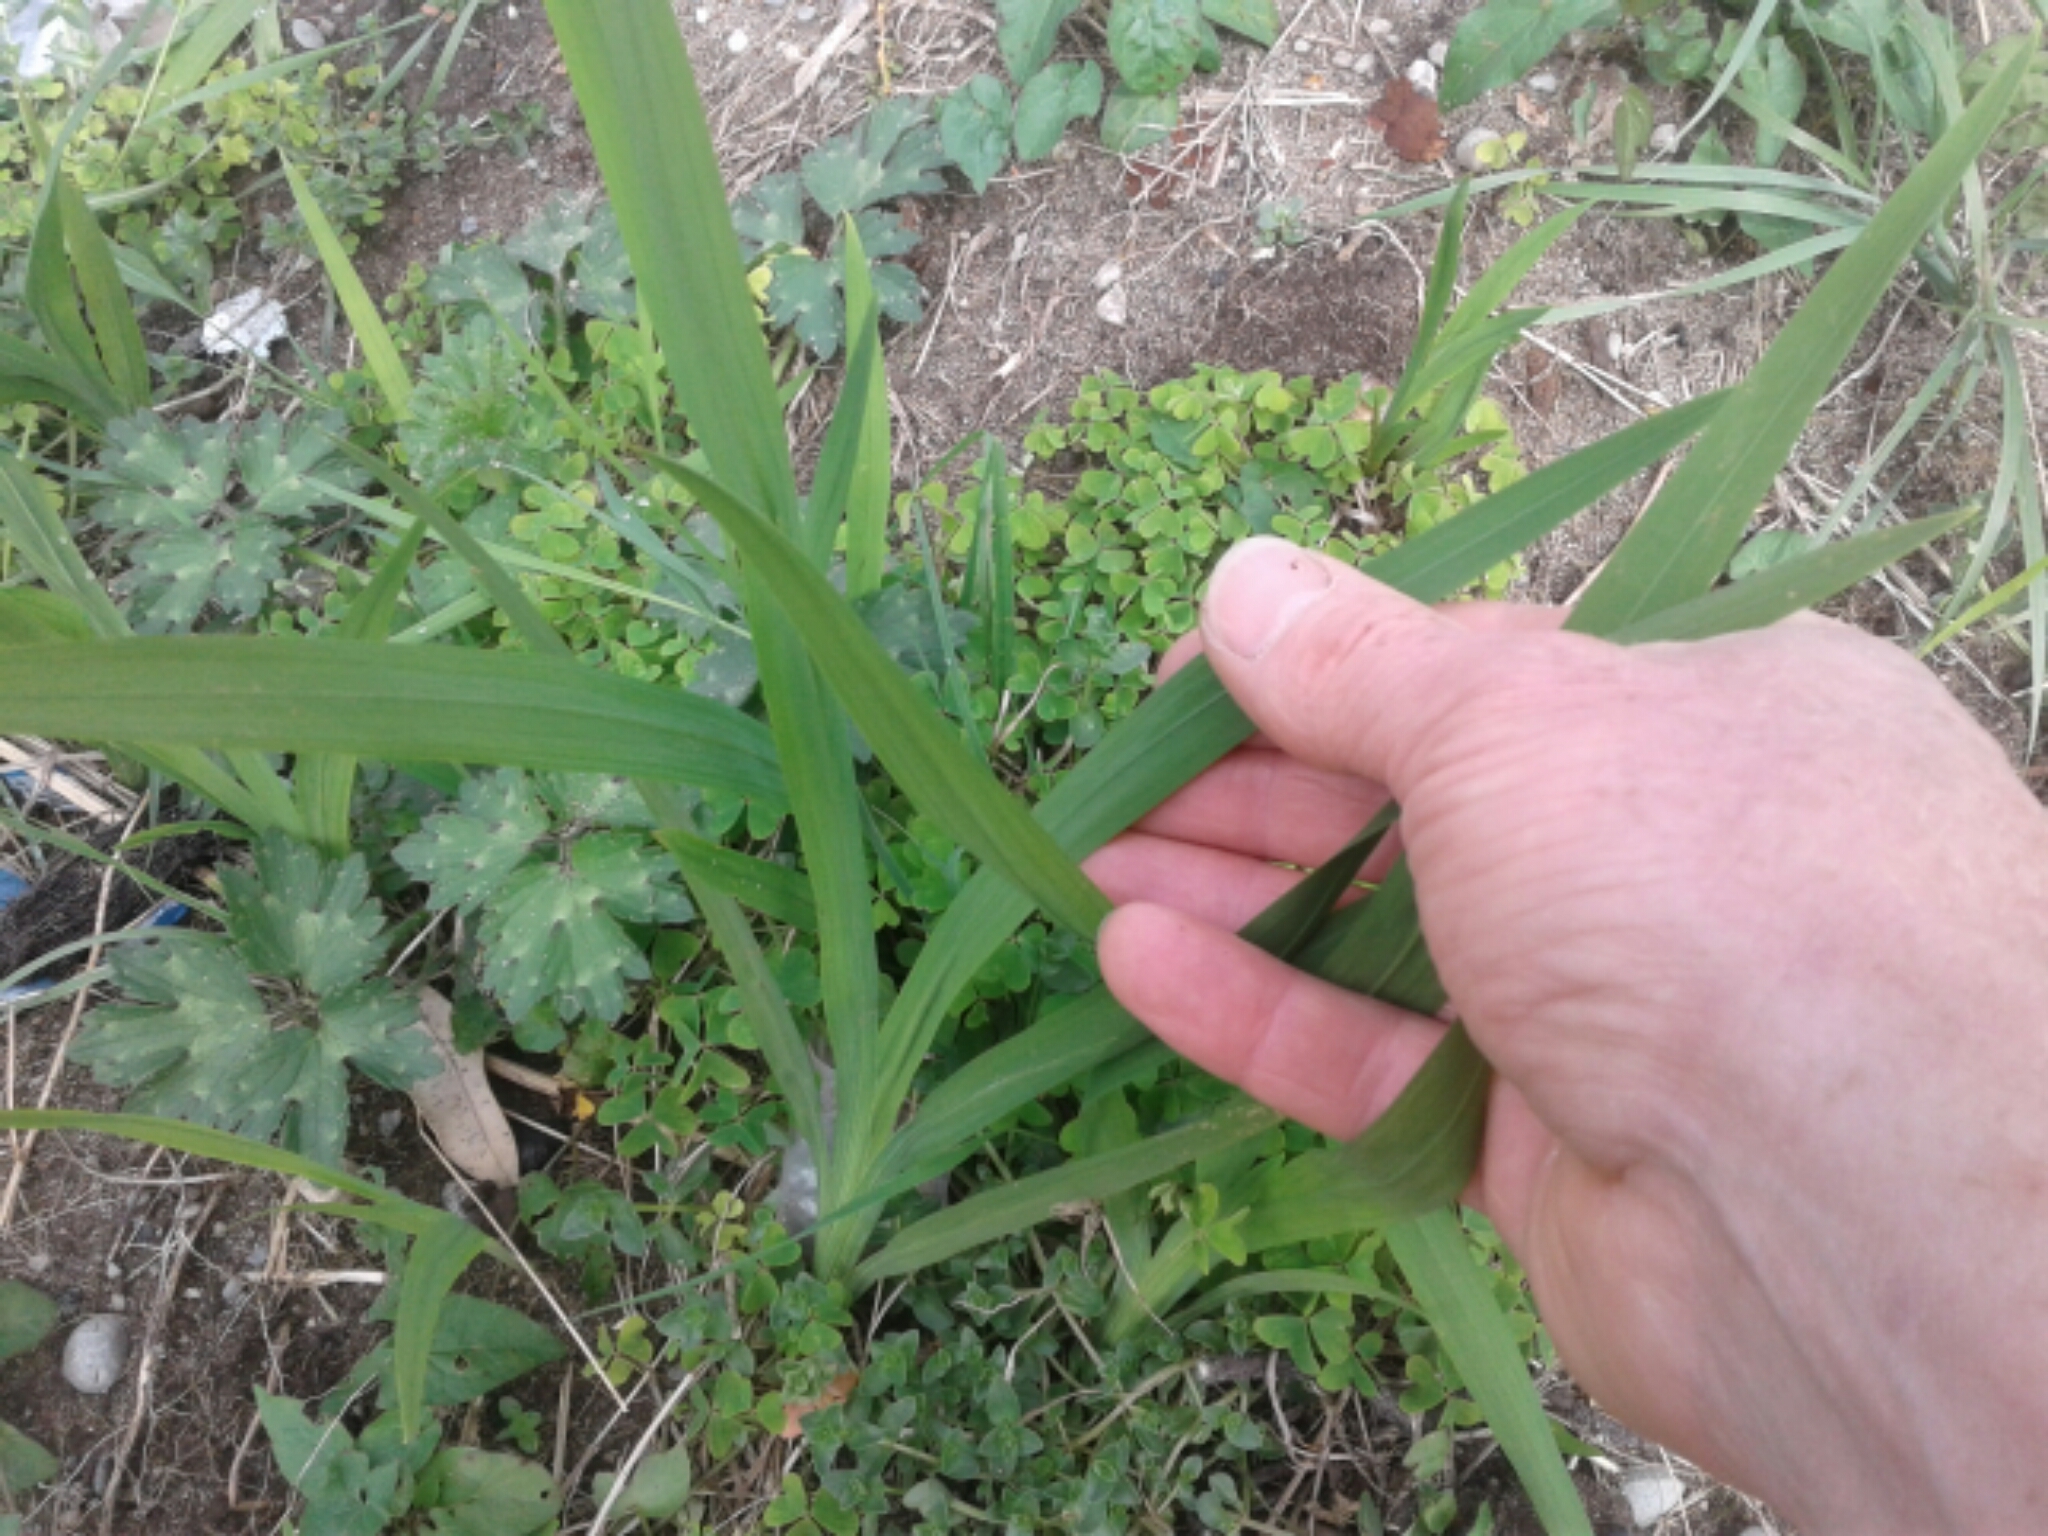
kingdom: Plantae
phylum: Tracheophyta
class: Liliopsida
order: Asparagales
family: Iridaceae
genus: Crocosmia
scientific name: Crocosmia crocosmiiflora
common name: Montbretia
